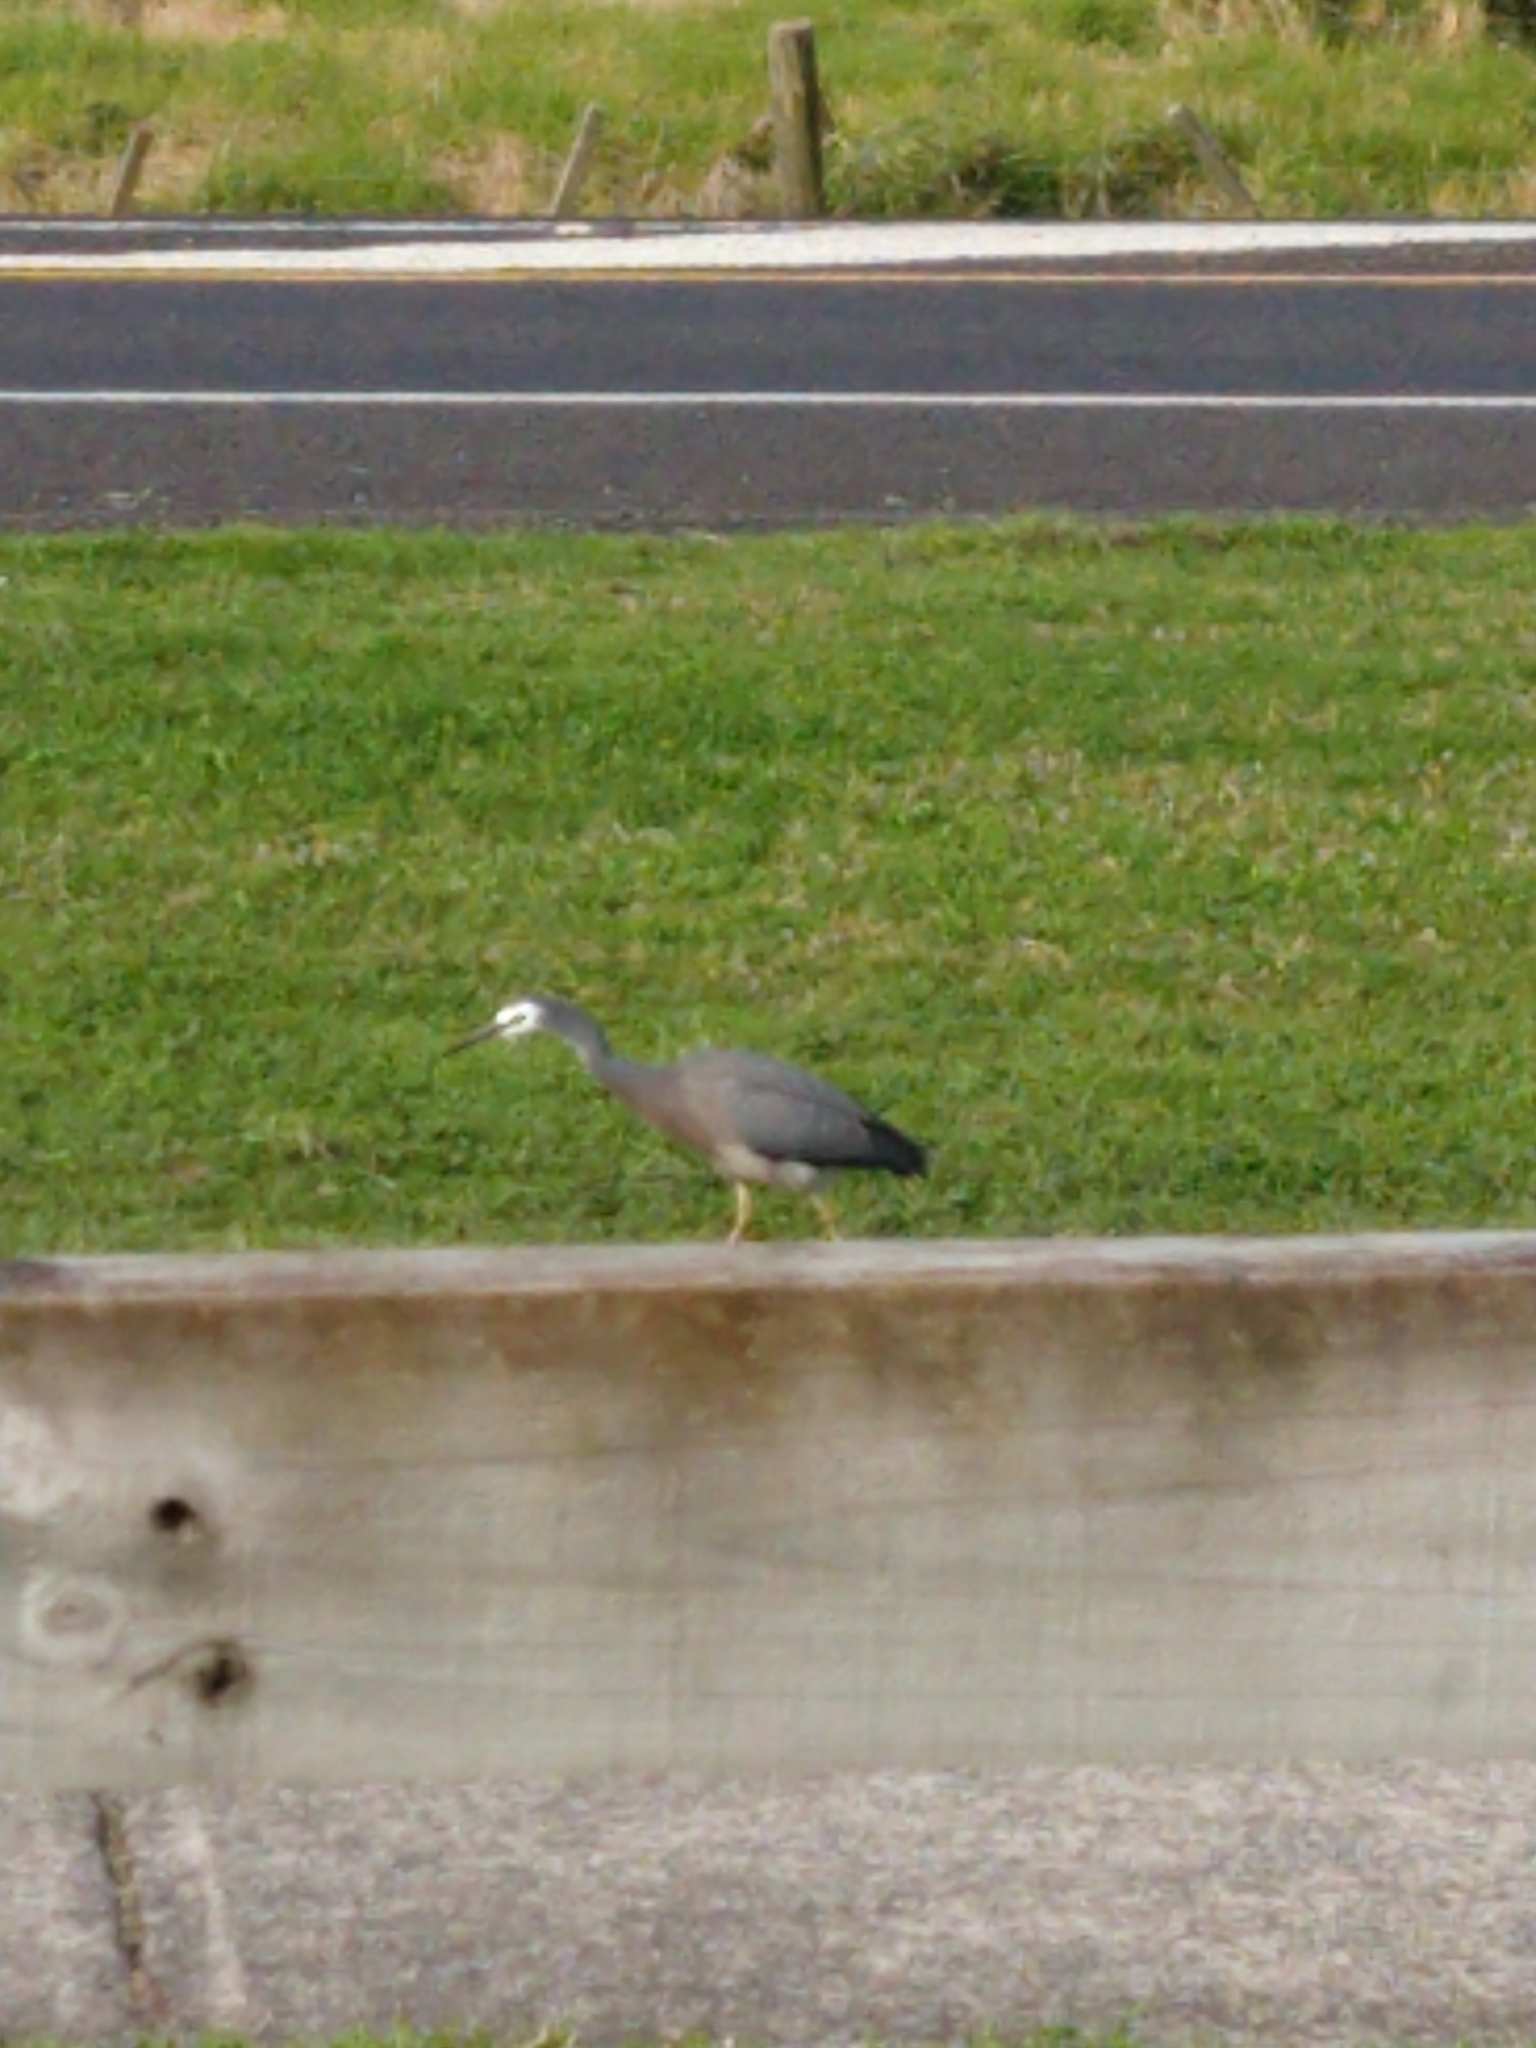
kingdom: Animalia
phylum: Chordata
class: Aves
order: Pelecaniformes
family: Ardeidae
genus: Egretta
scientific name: Egretta novaehollandiae
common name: White-faced heron
